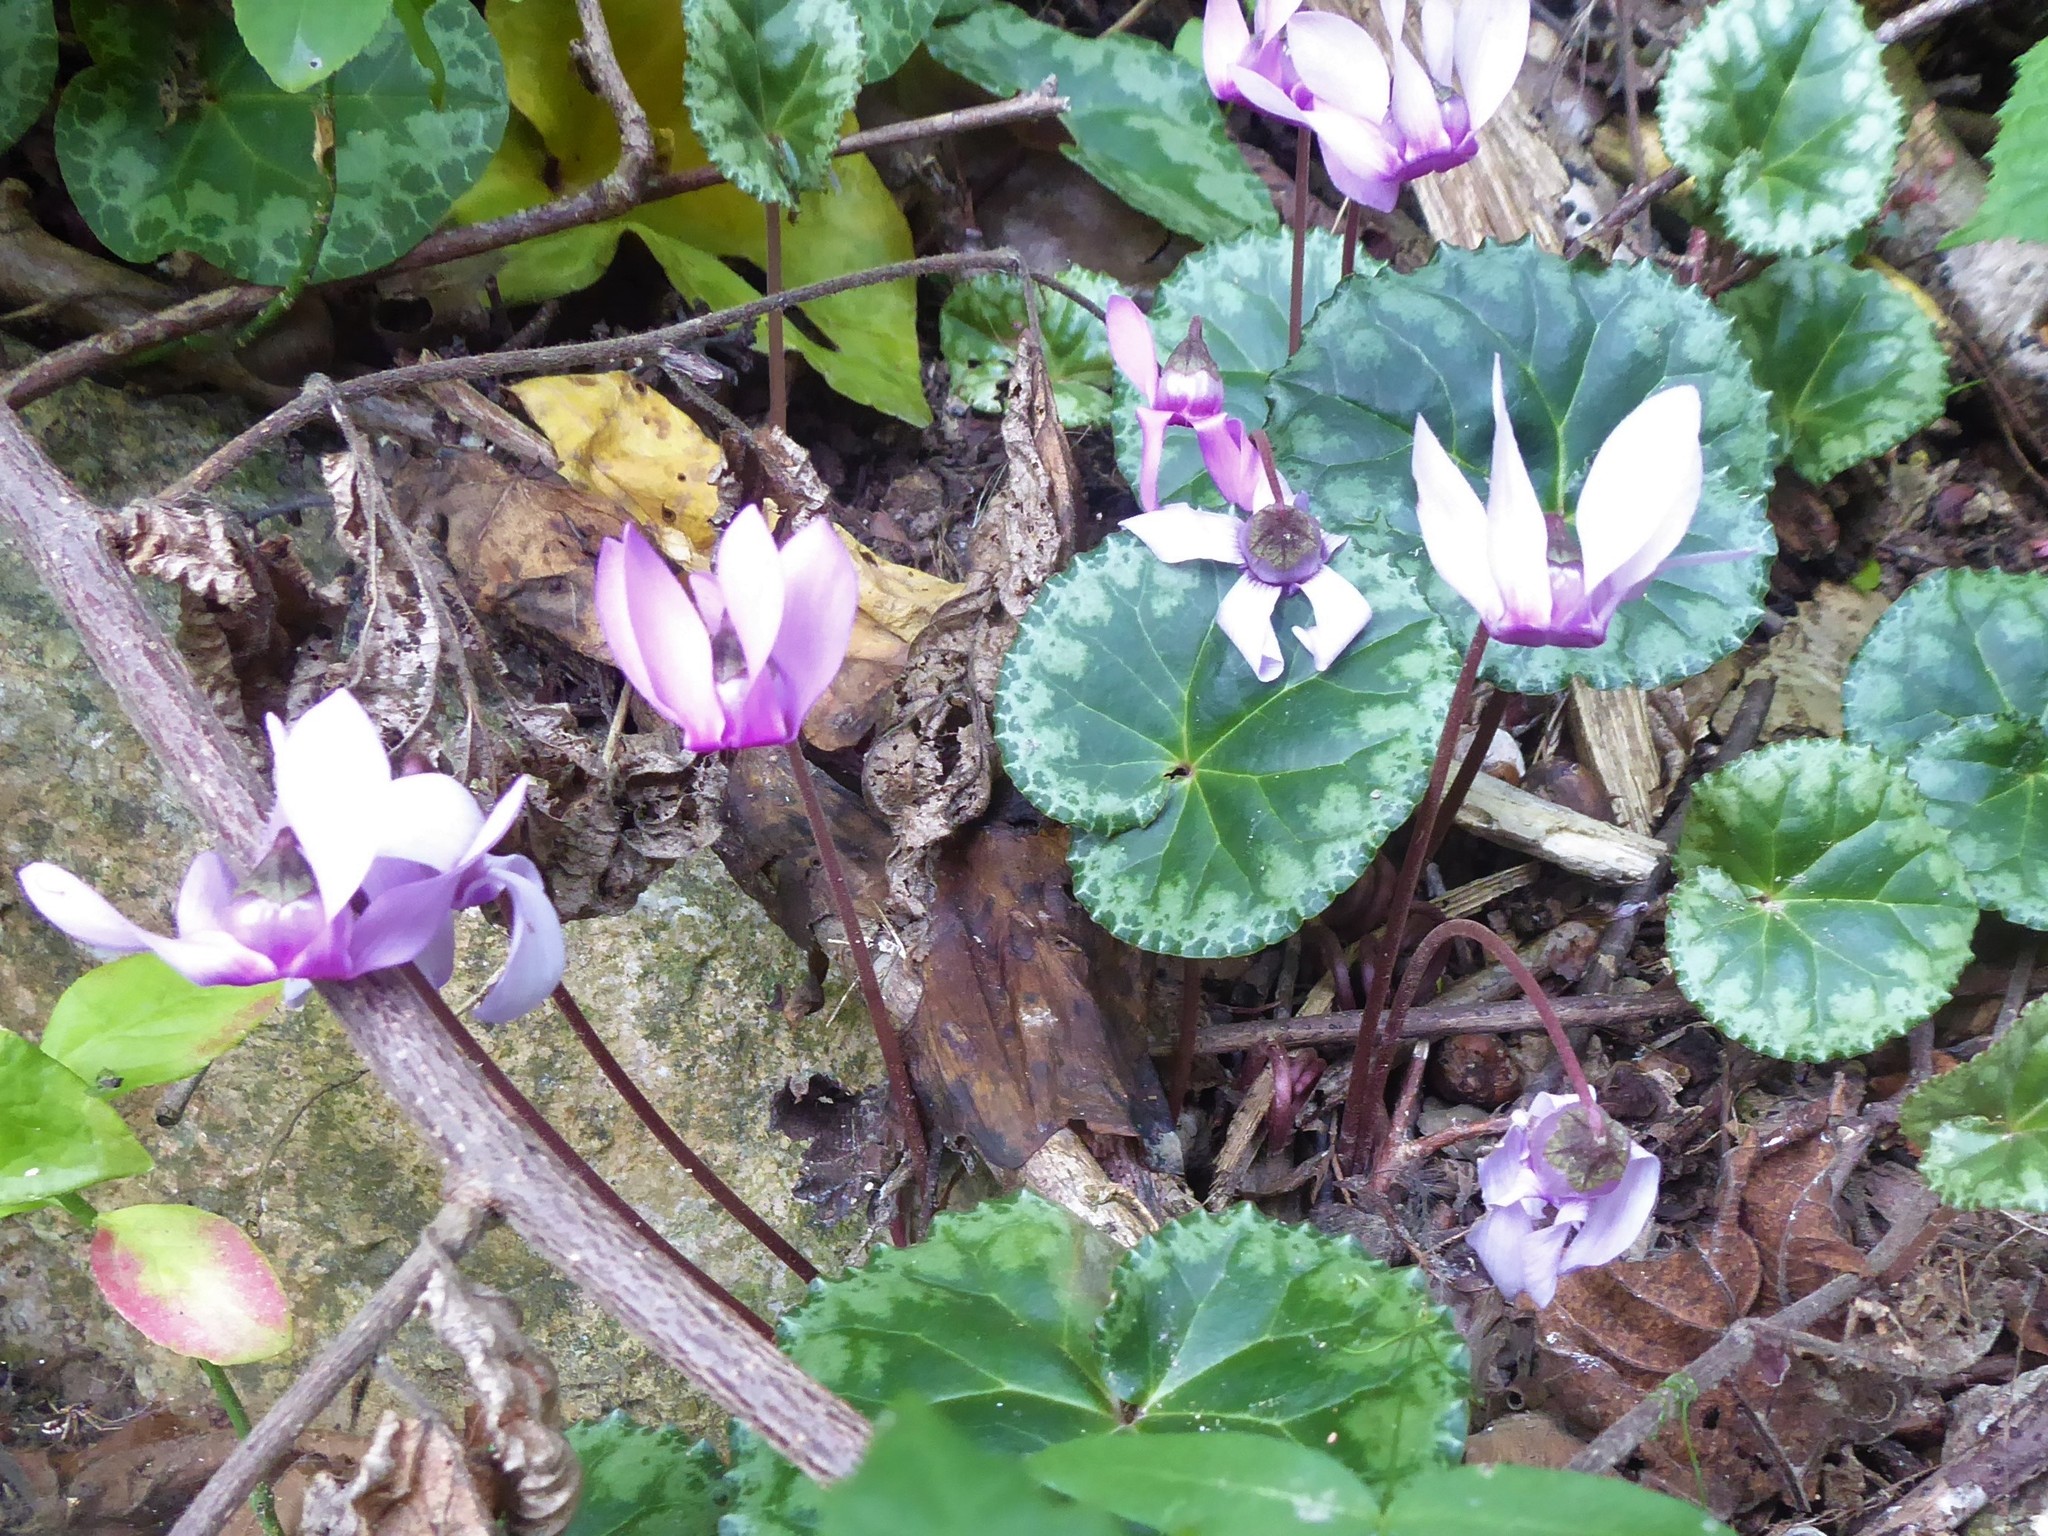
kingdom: Plantae
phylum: Tracheophyta
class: Magnoliopsida
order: Ericales
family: Primulaceae
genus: Cyclamen
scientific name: Cyclamen purpurascens
